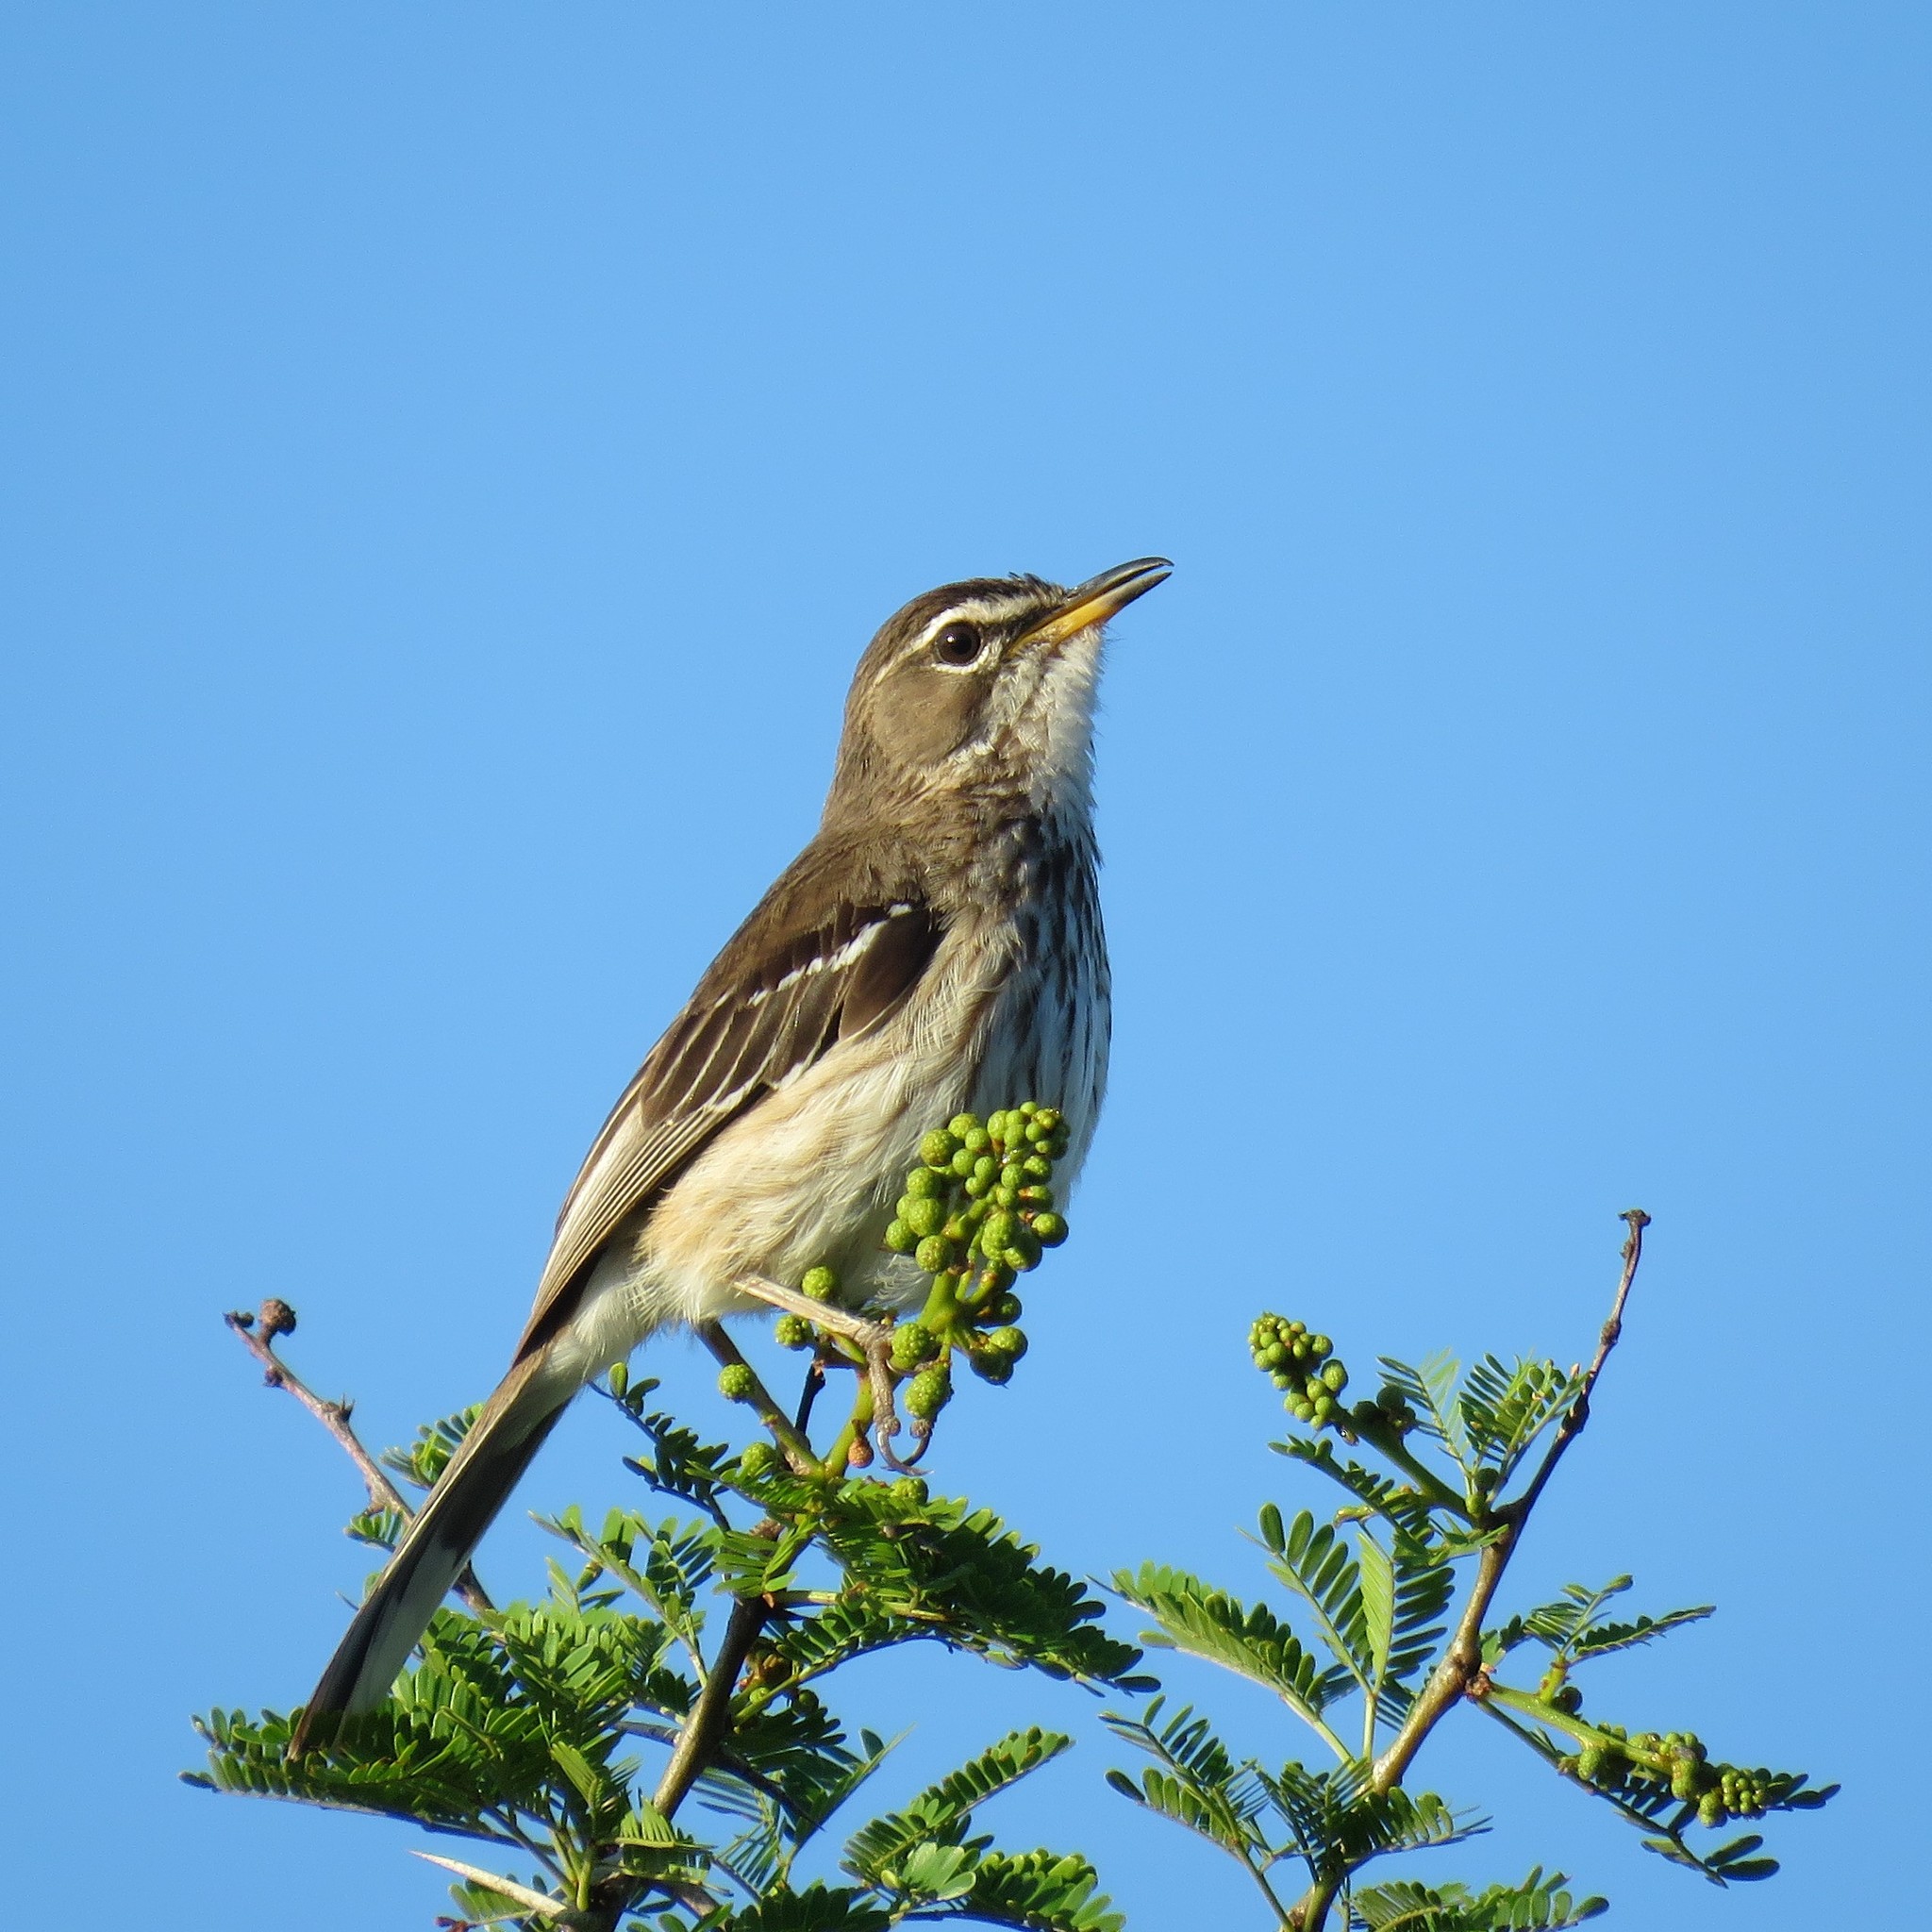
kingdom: Animalia
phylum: Chordata
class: Aves
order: Passeriformes
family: Muscicapidae
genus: Erythropygia
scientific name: Erythropygia leucophrys
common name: White-browed scrub robin
